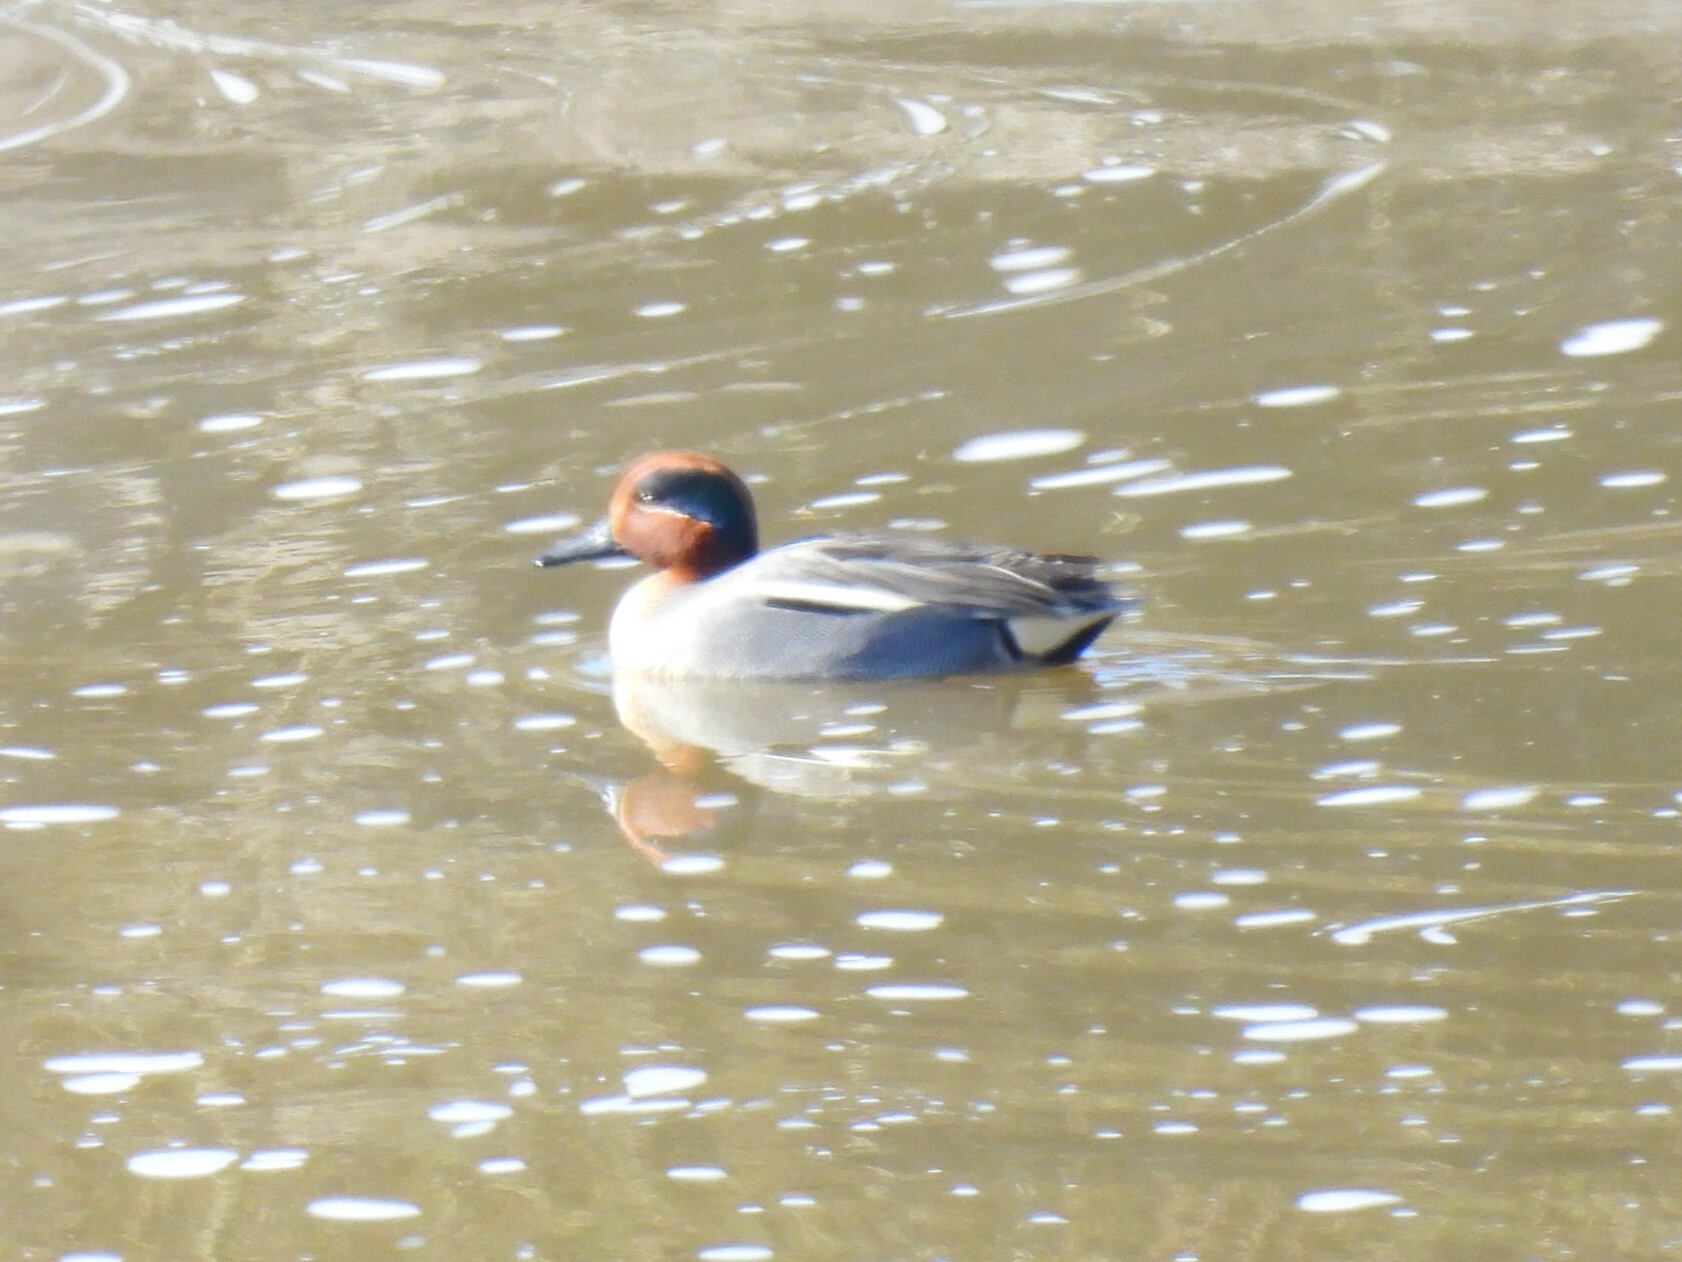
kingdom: Animalia
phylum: Chordata
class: Aves
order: Anseriformes
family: Anatidae
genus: Anas
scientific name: Anas crecca
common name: Eurasian teal
